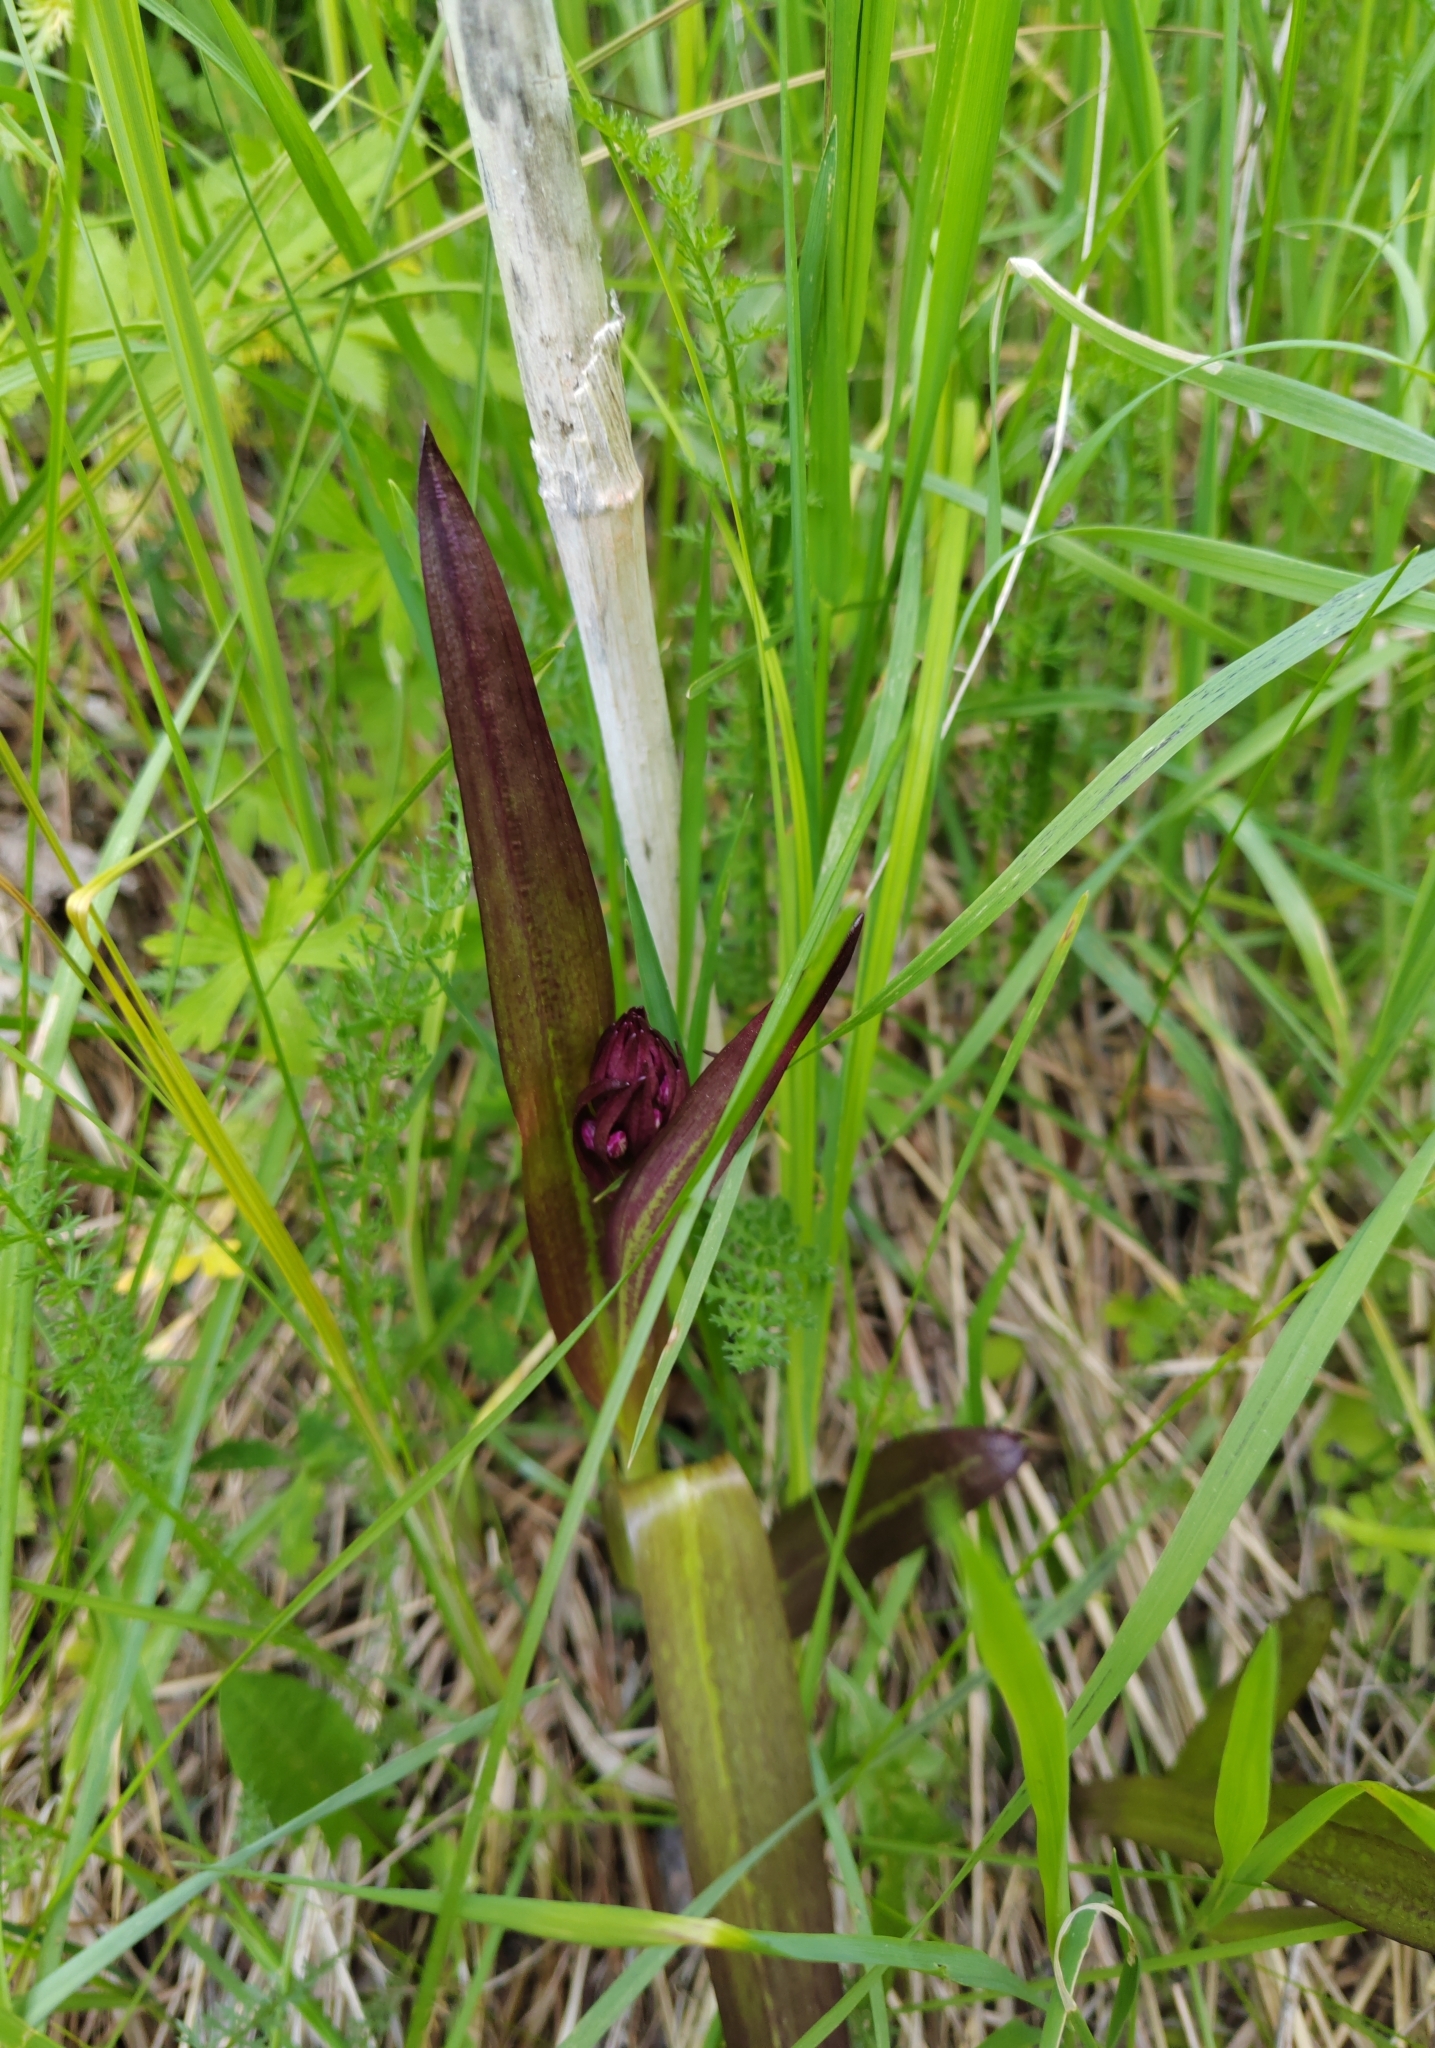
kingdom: Plantae
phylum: Tracheophyta
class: Liliopsida
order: Asparagales
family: Orchidaceae
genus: Dactylorhiza
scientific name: Dactylorhiza incarnata
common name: Early marsh-orchid
